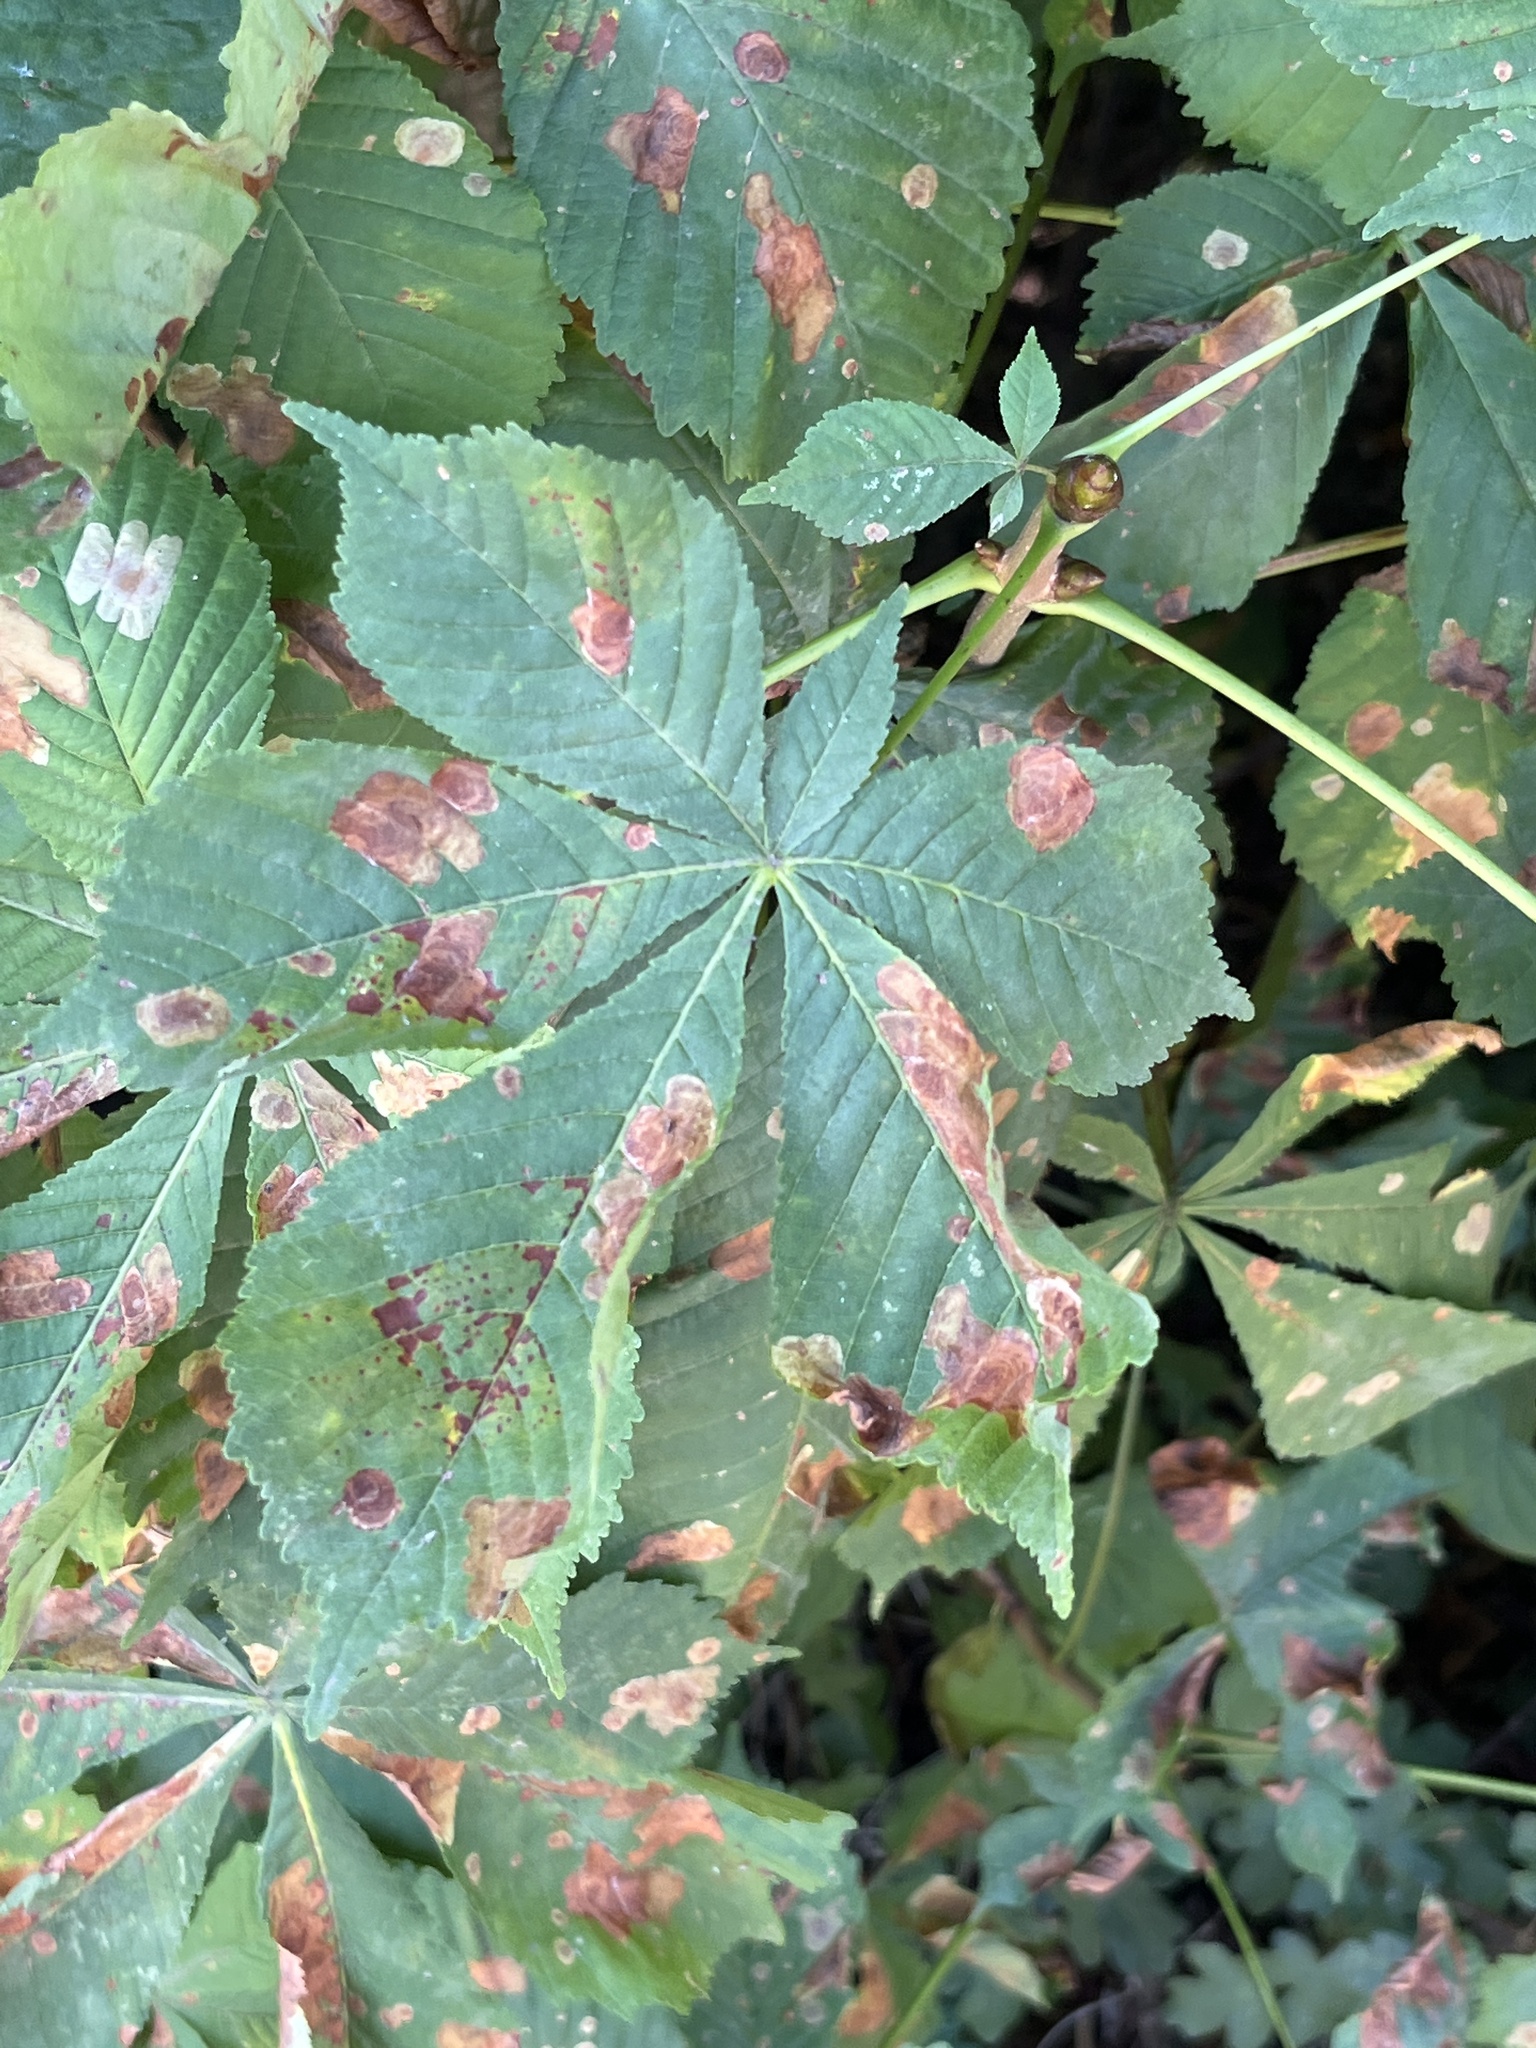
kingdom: Animalia
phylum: Arthropoda
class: Insecta
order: Lepidoptera
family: Gracillariidae
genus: Cameraria
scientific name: Cameraria ohridella
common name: Horse-chestnut leaf-miner
